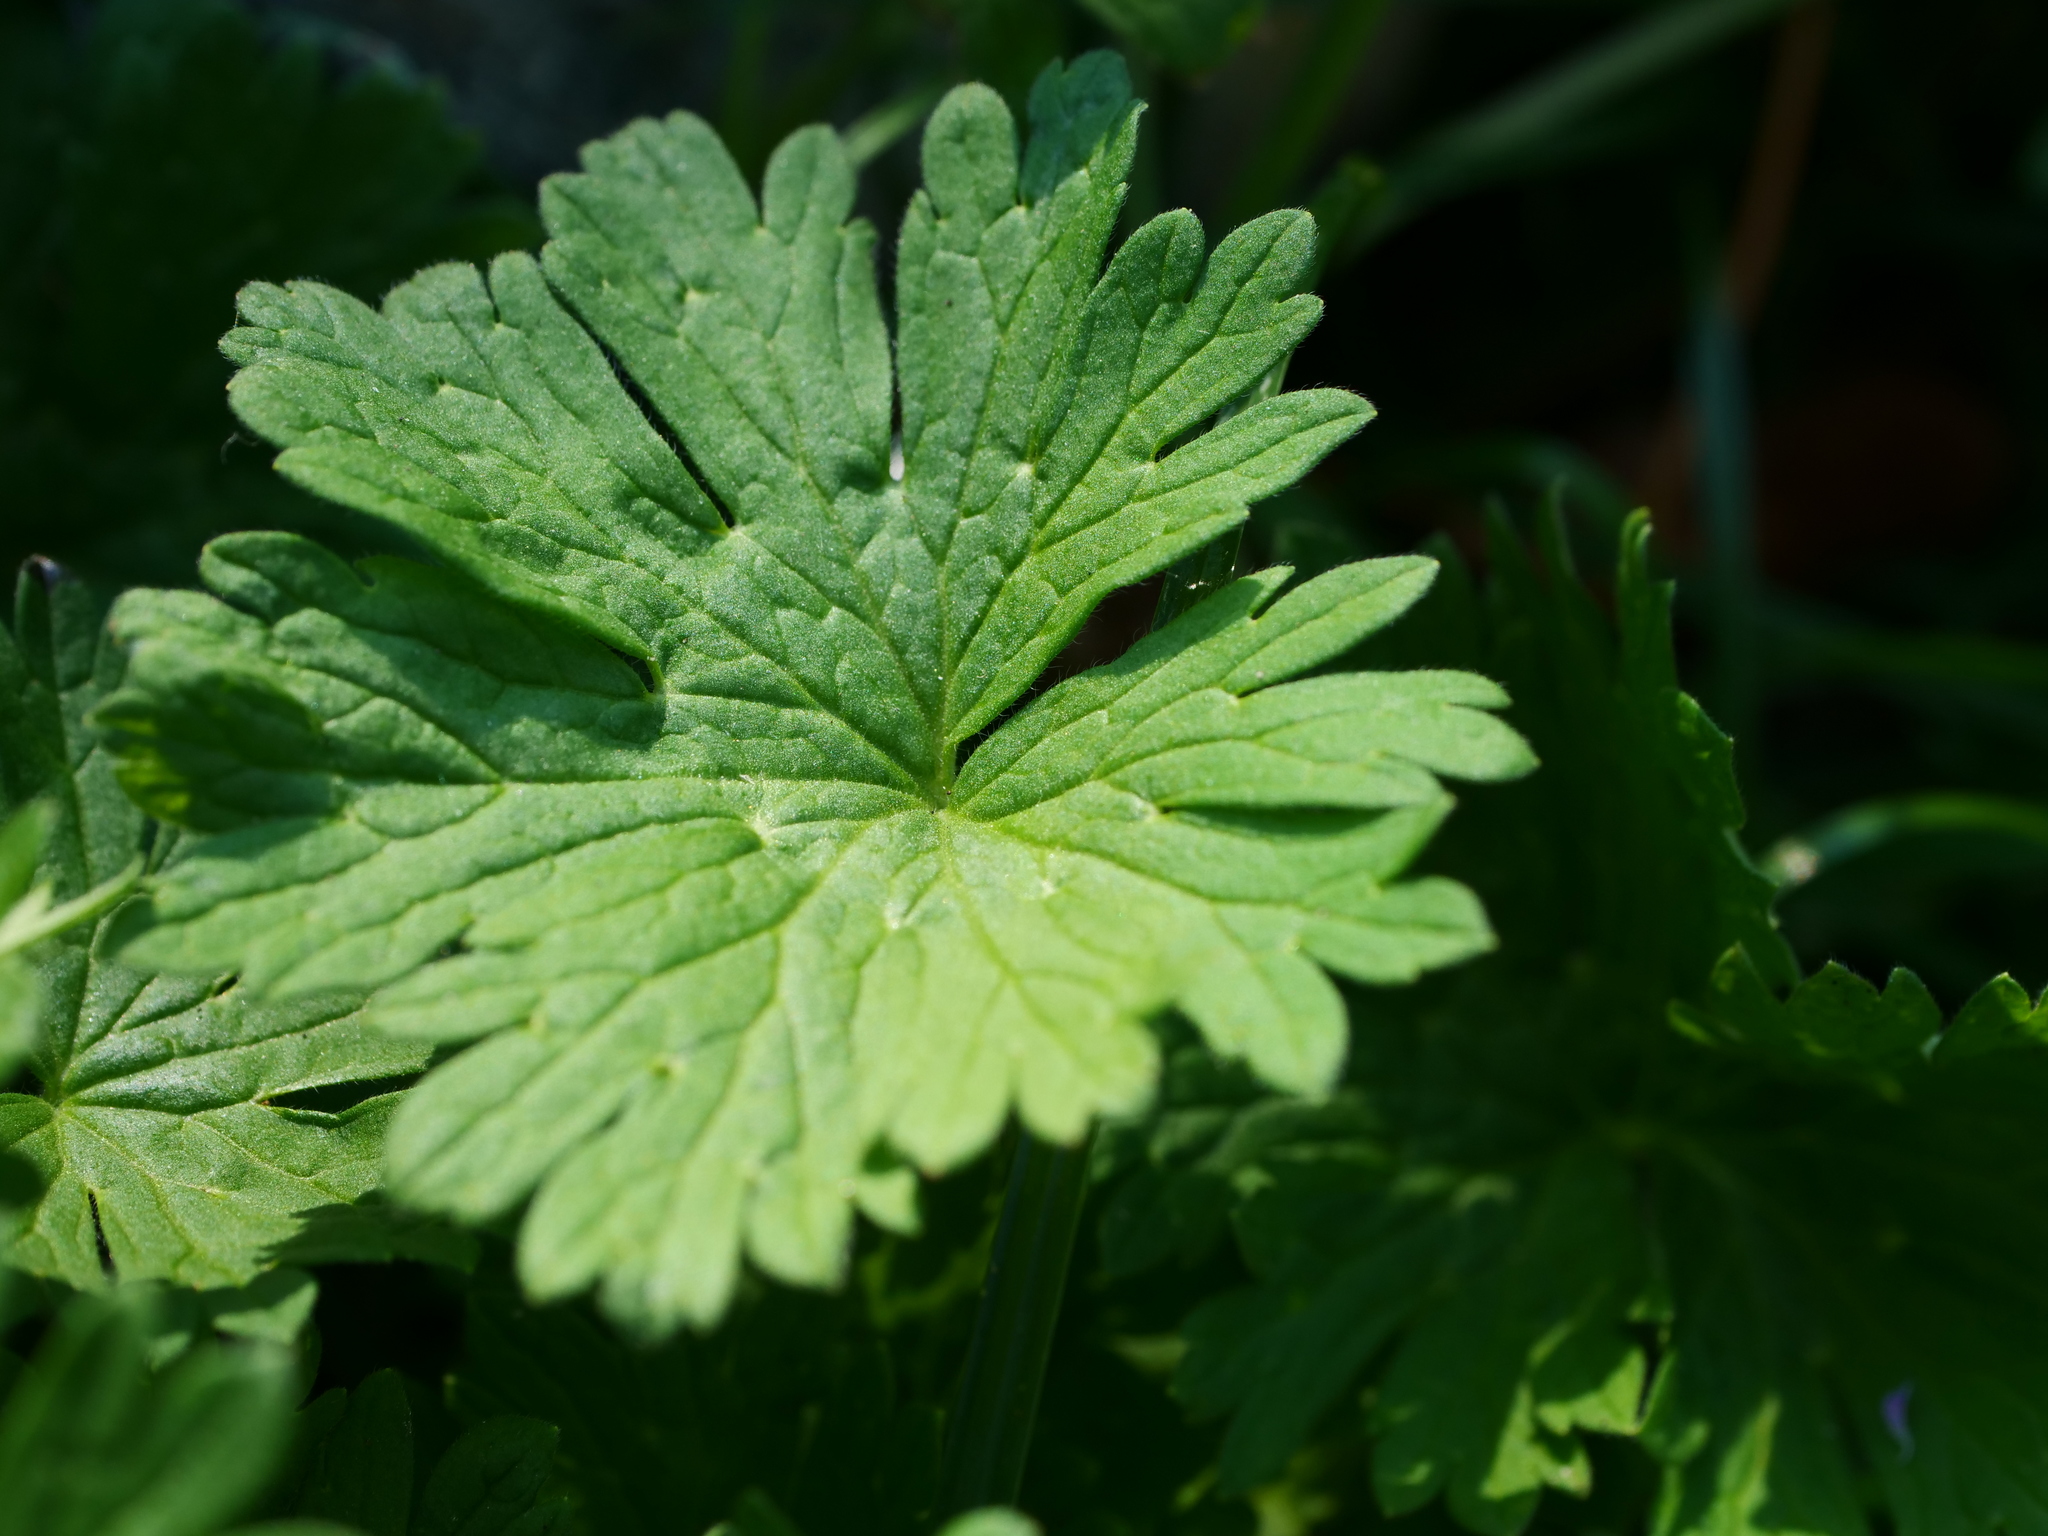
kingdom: Plantae
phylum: Tracheophyta
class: Magnoliopsida
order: Geraniales
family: Geraniaceae
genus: Geranium
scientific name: Geranium pusillum
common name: Small geranium
